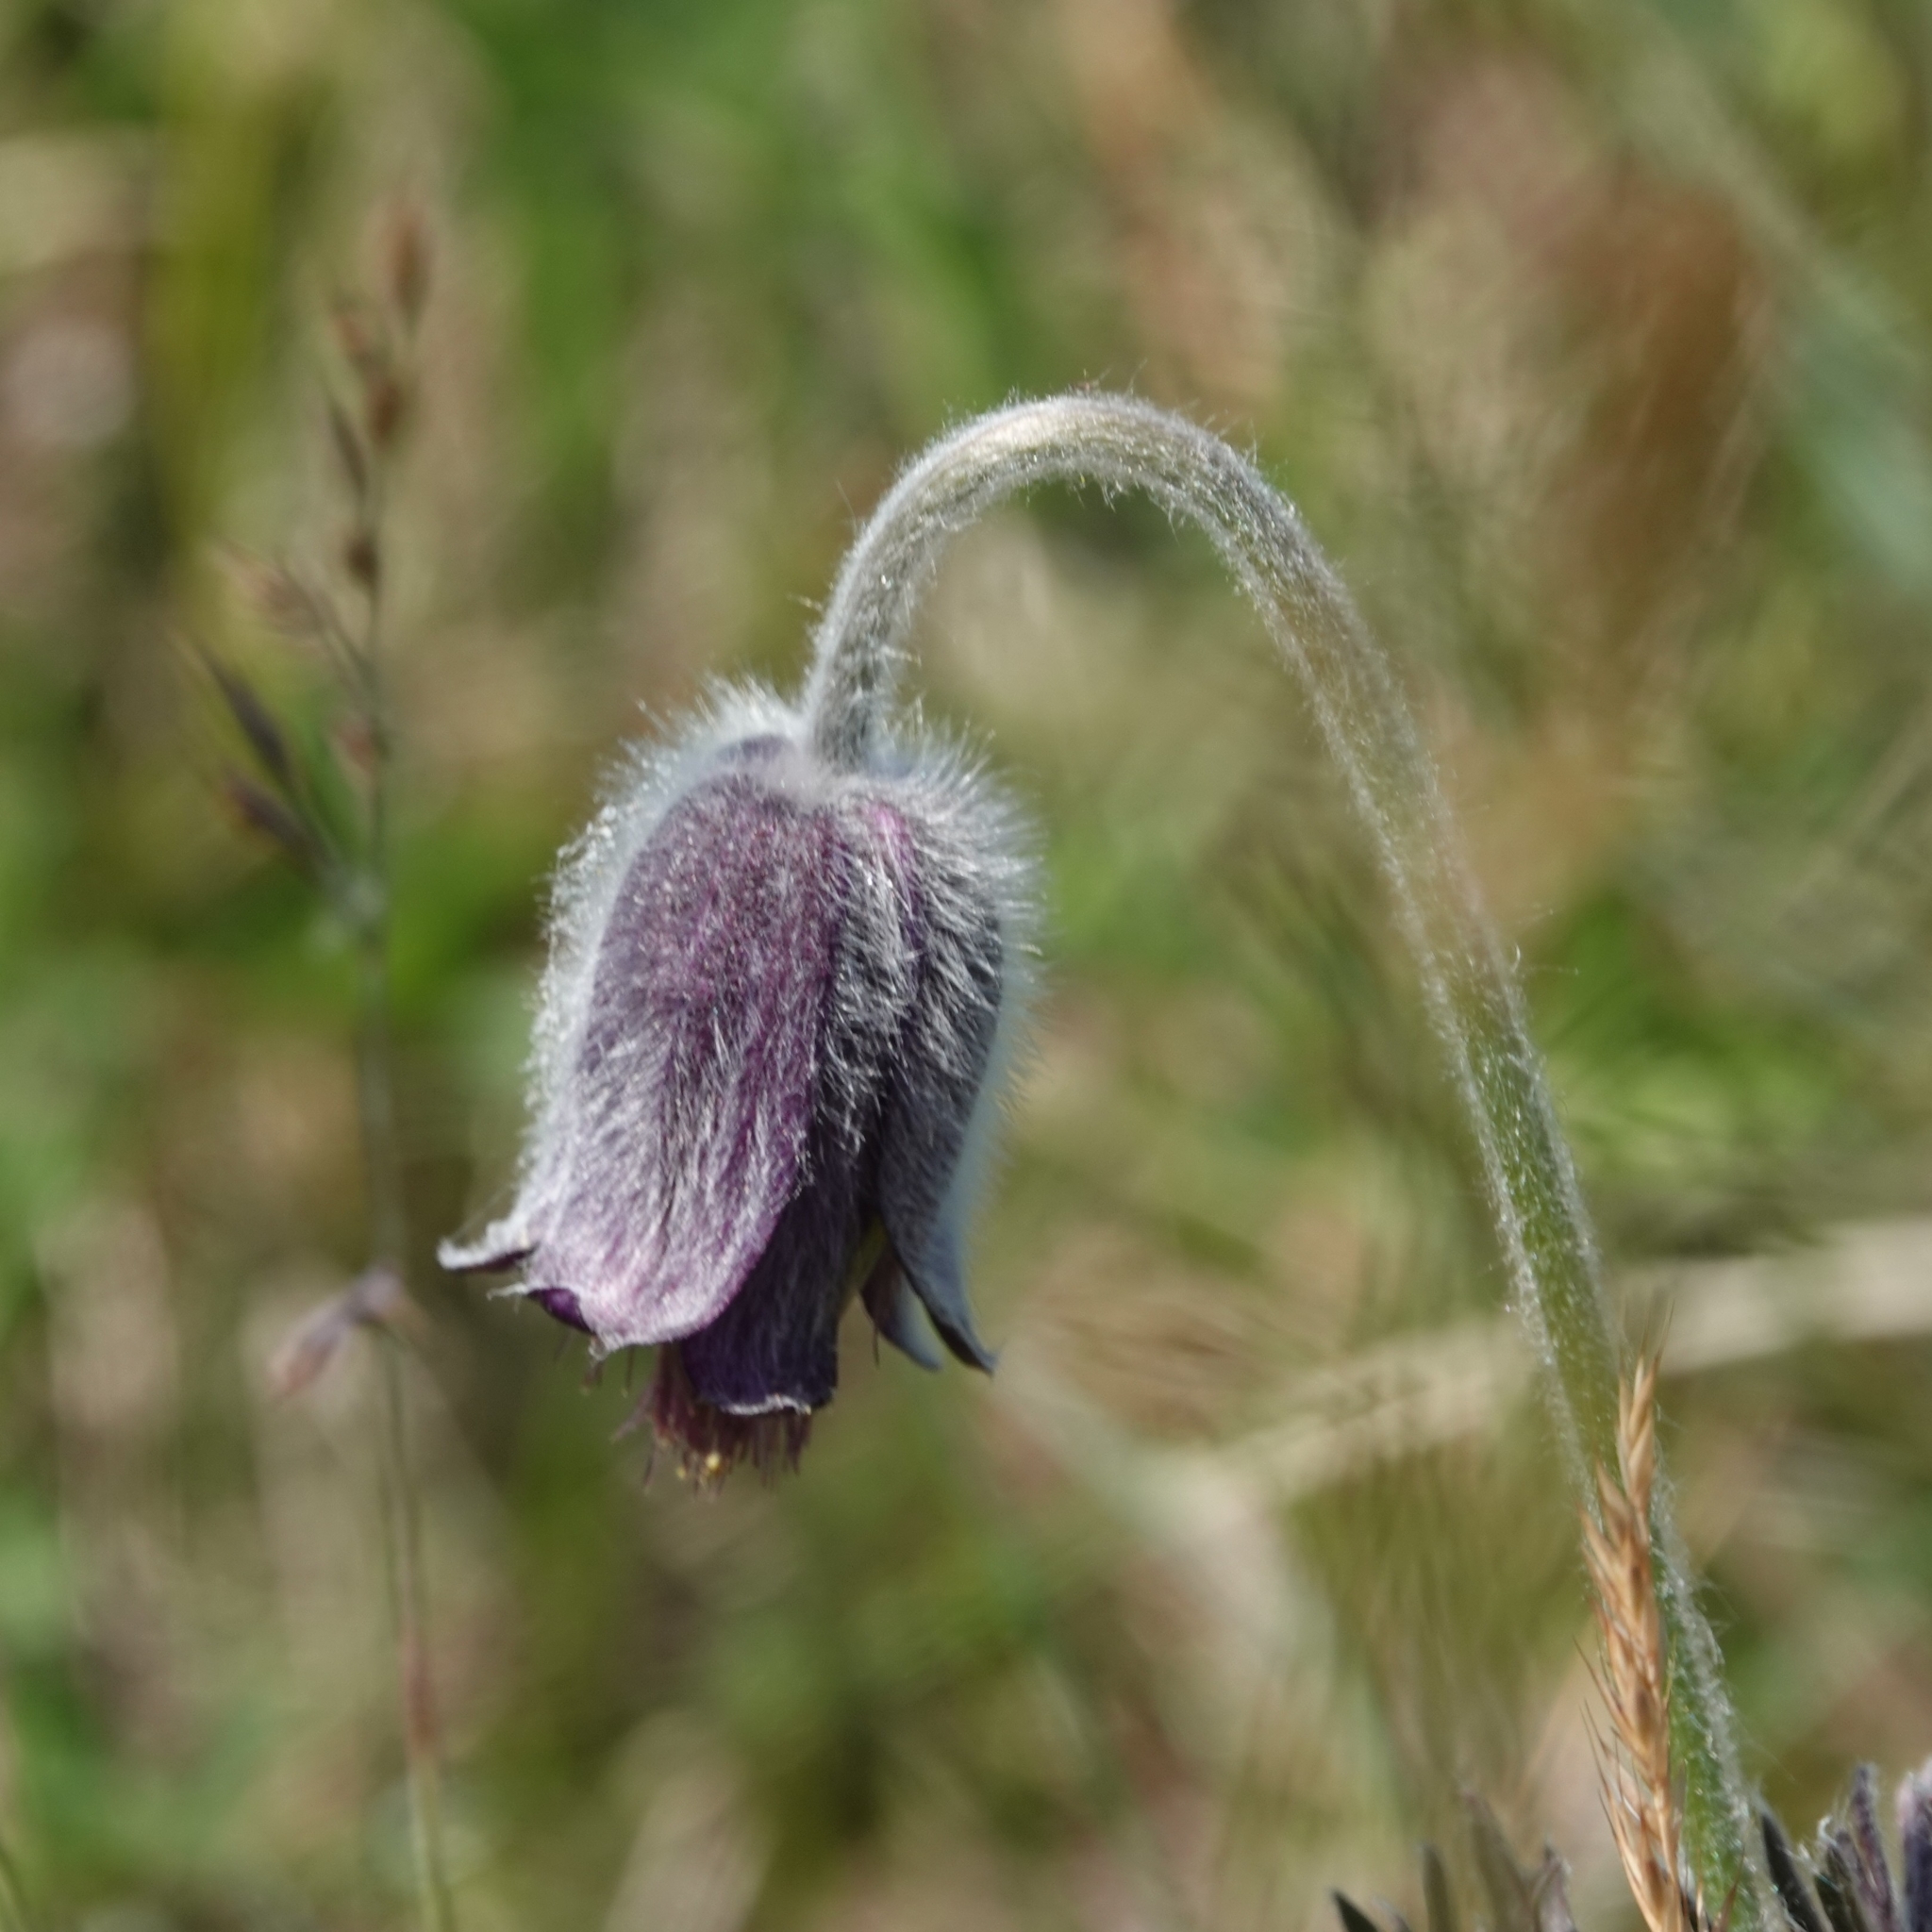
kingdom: Plantae
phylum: Tracheophyta
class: Magnoliopsida
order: Ranunculales
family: Ranunculaceae
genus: Pulsatilla
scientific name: Pulsatilla pratensis
